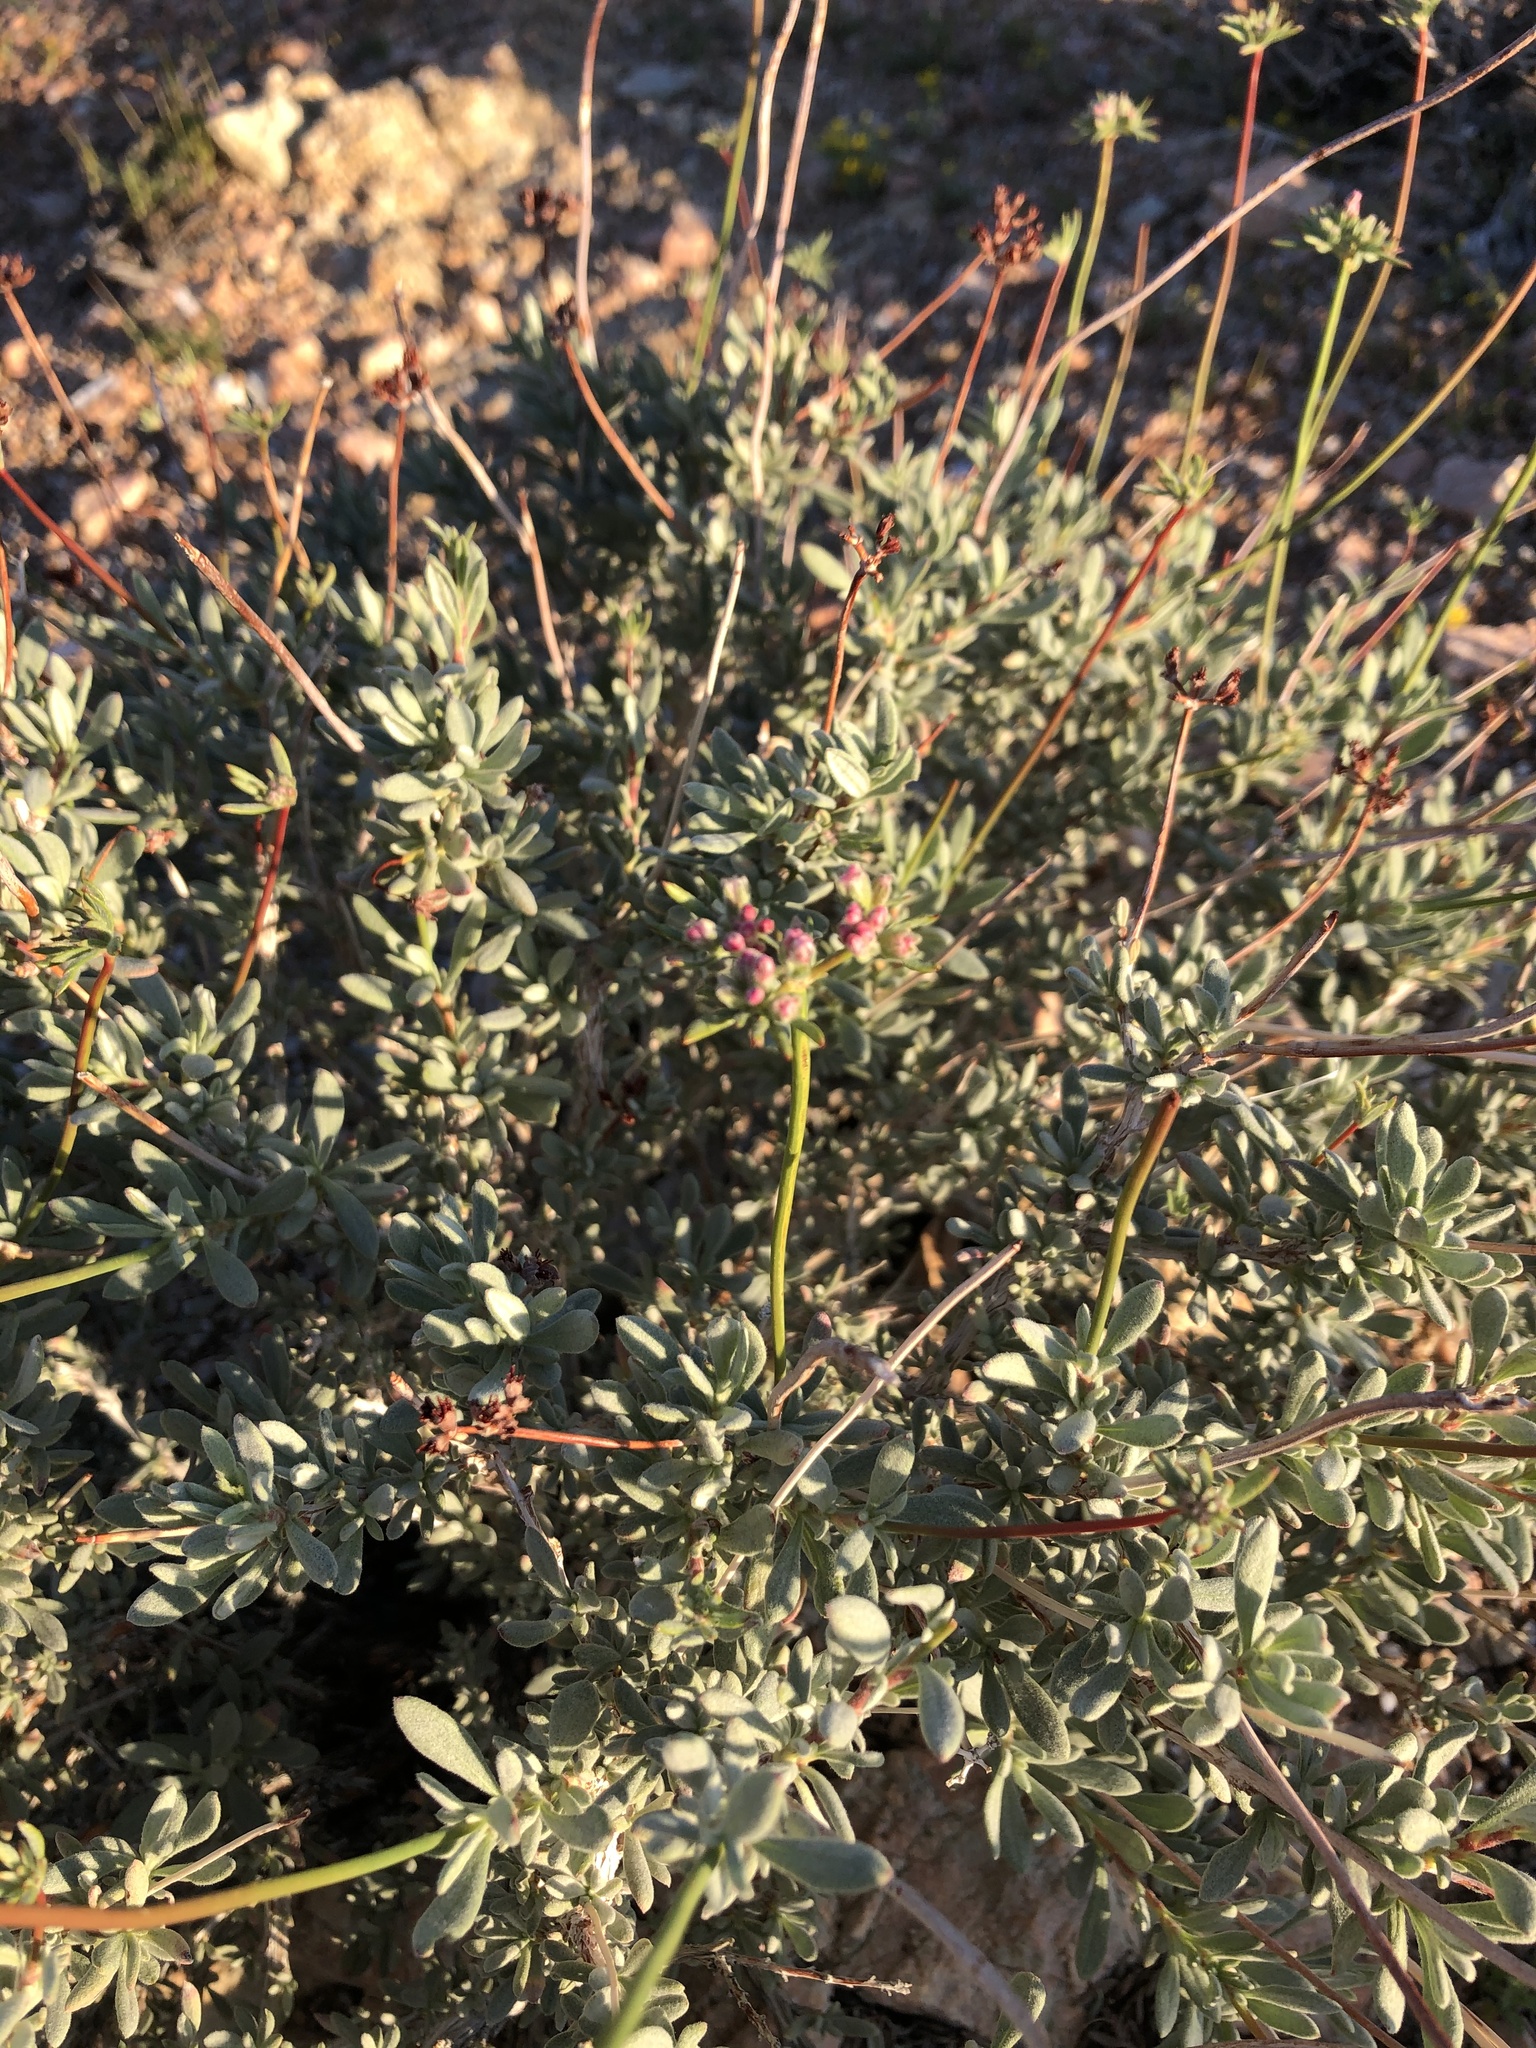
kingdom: Plantae
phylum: Tracheophyta
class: Magnoliopsida
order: Caryophyllales
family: Polygonaceae
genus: Eriogonum
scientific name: Eriogonum fasciculatum
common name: California wild buckwheat
